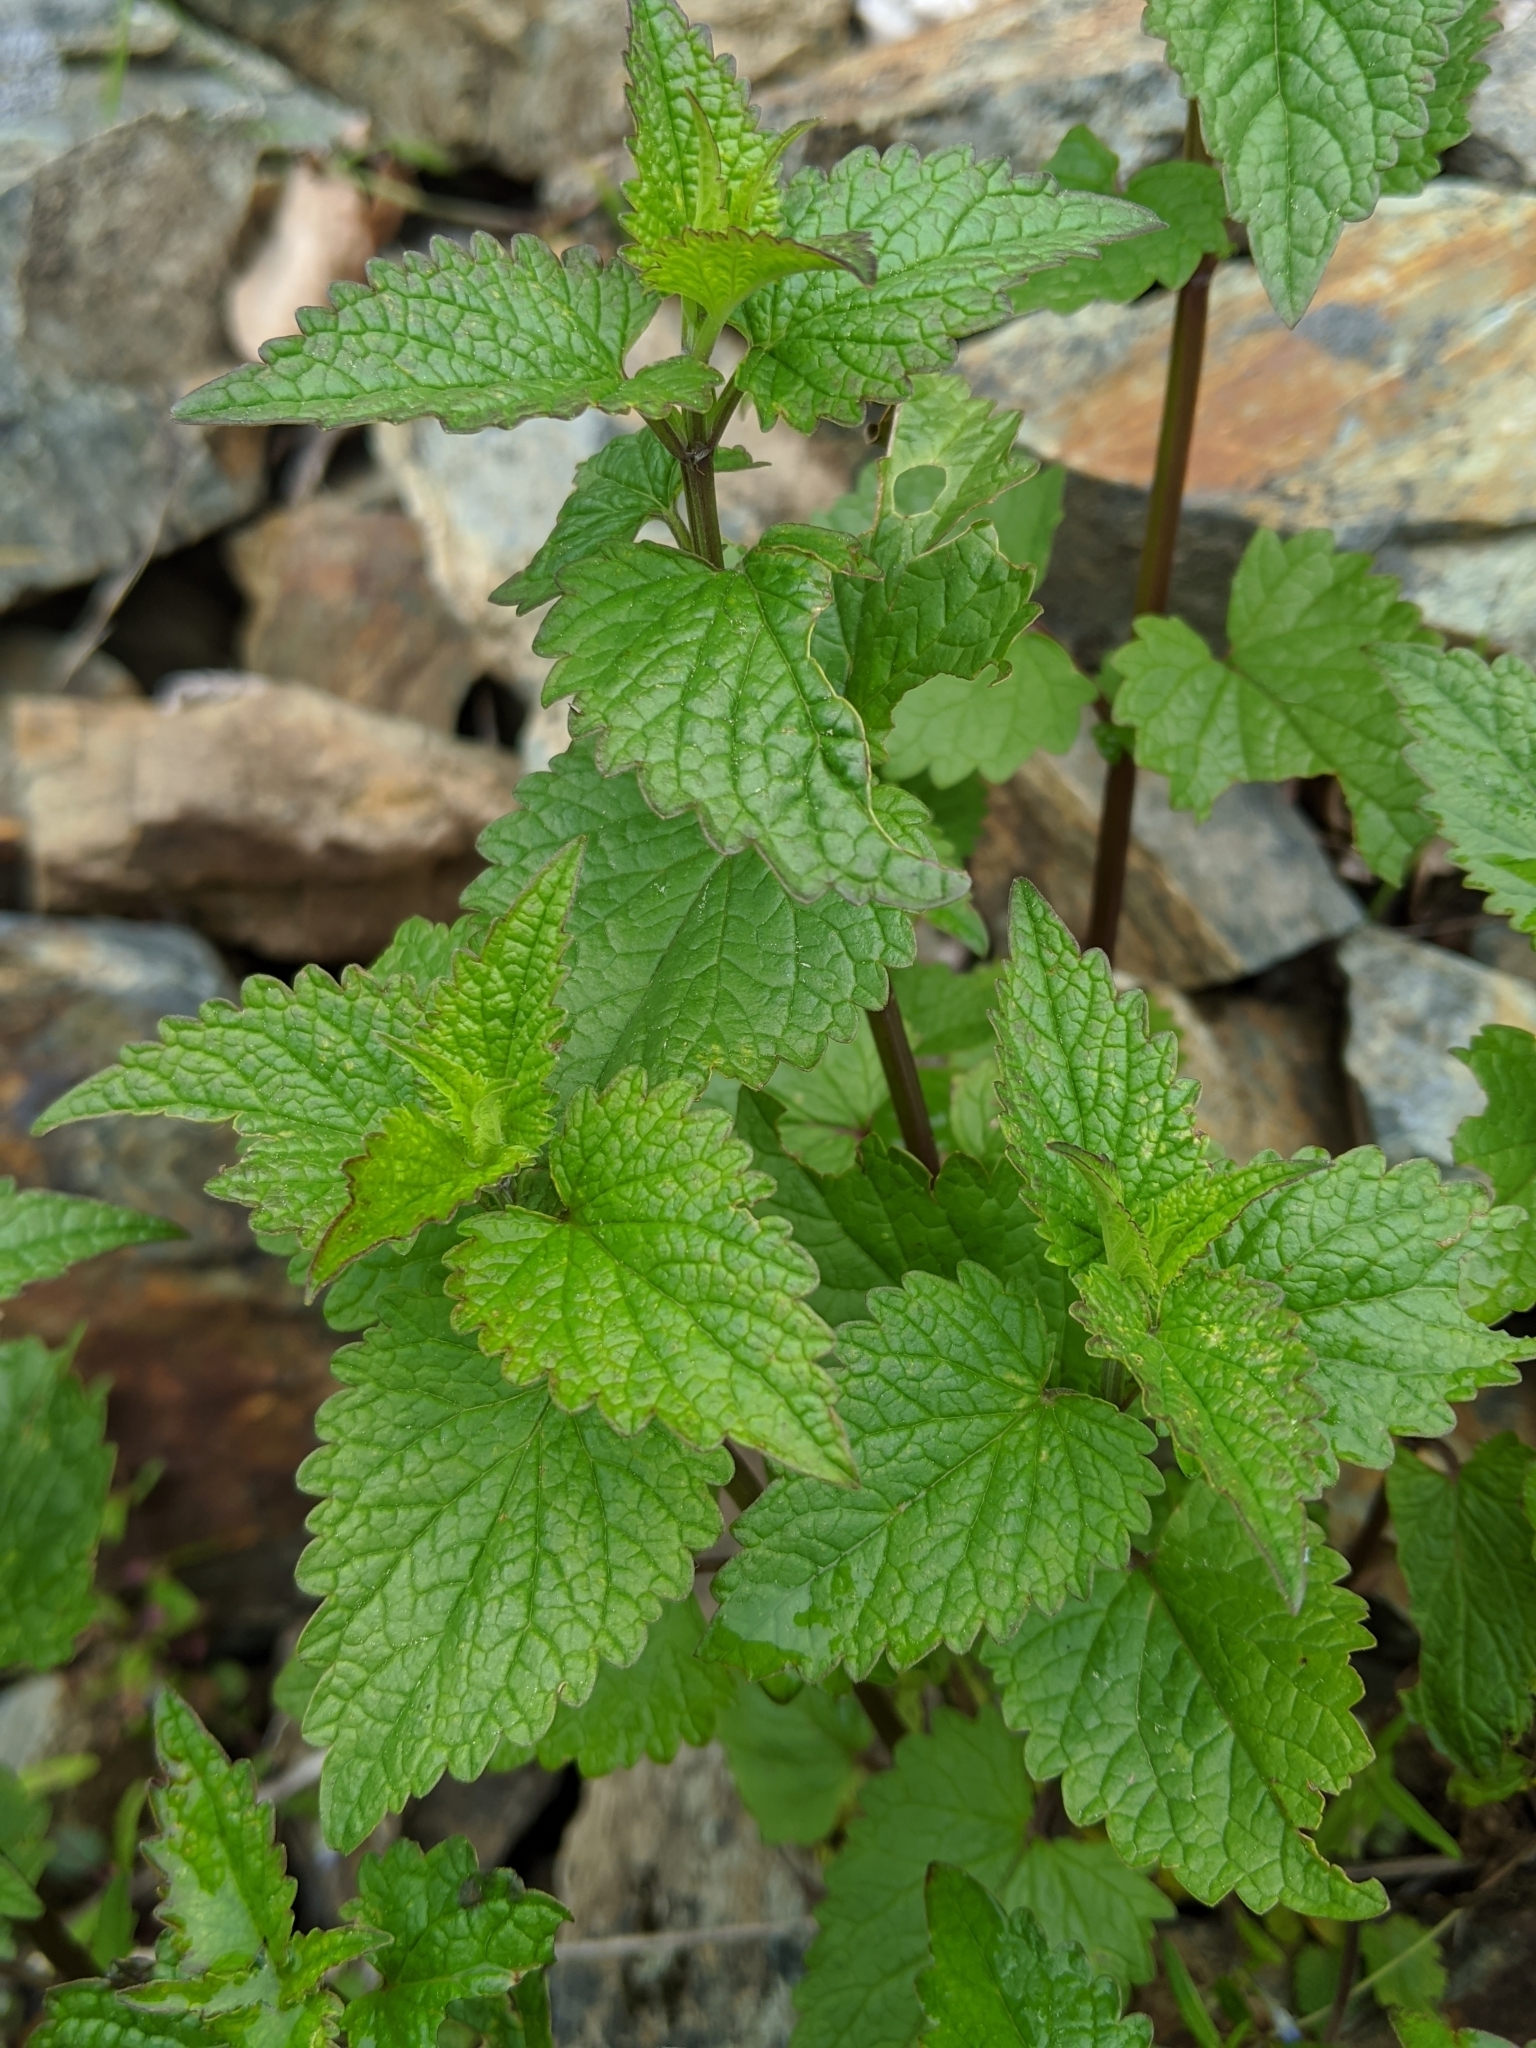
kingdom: Plantae
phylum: Tracheophyta
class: Magnoliopsida
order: Lamiales
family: Lamiaceae
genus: Agastache
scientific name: Agastache urticifolia
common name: Horsemint giant hyssop
